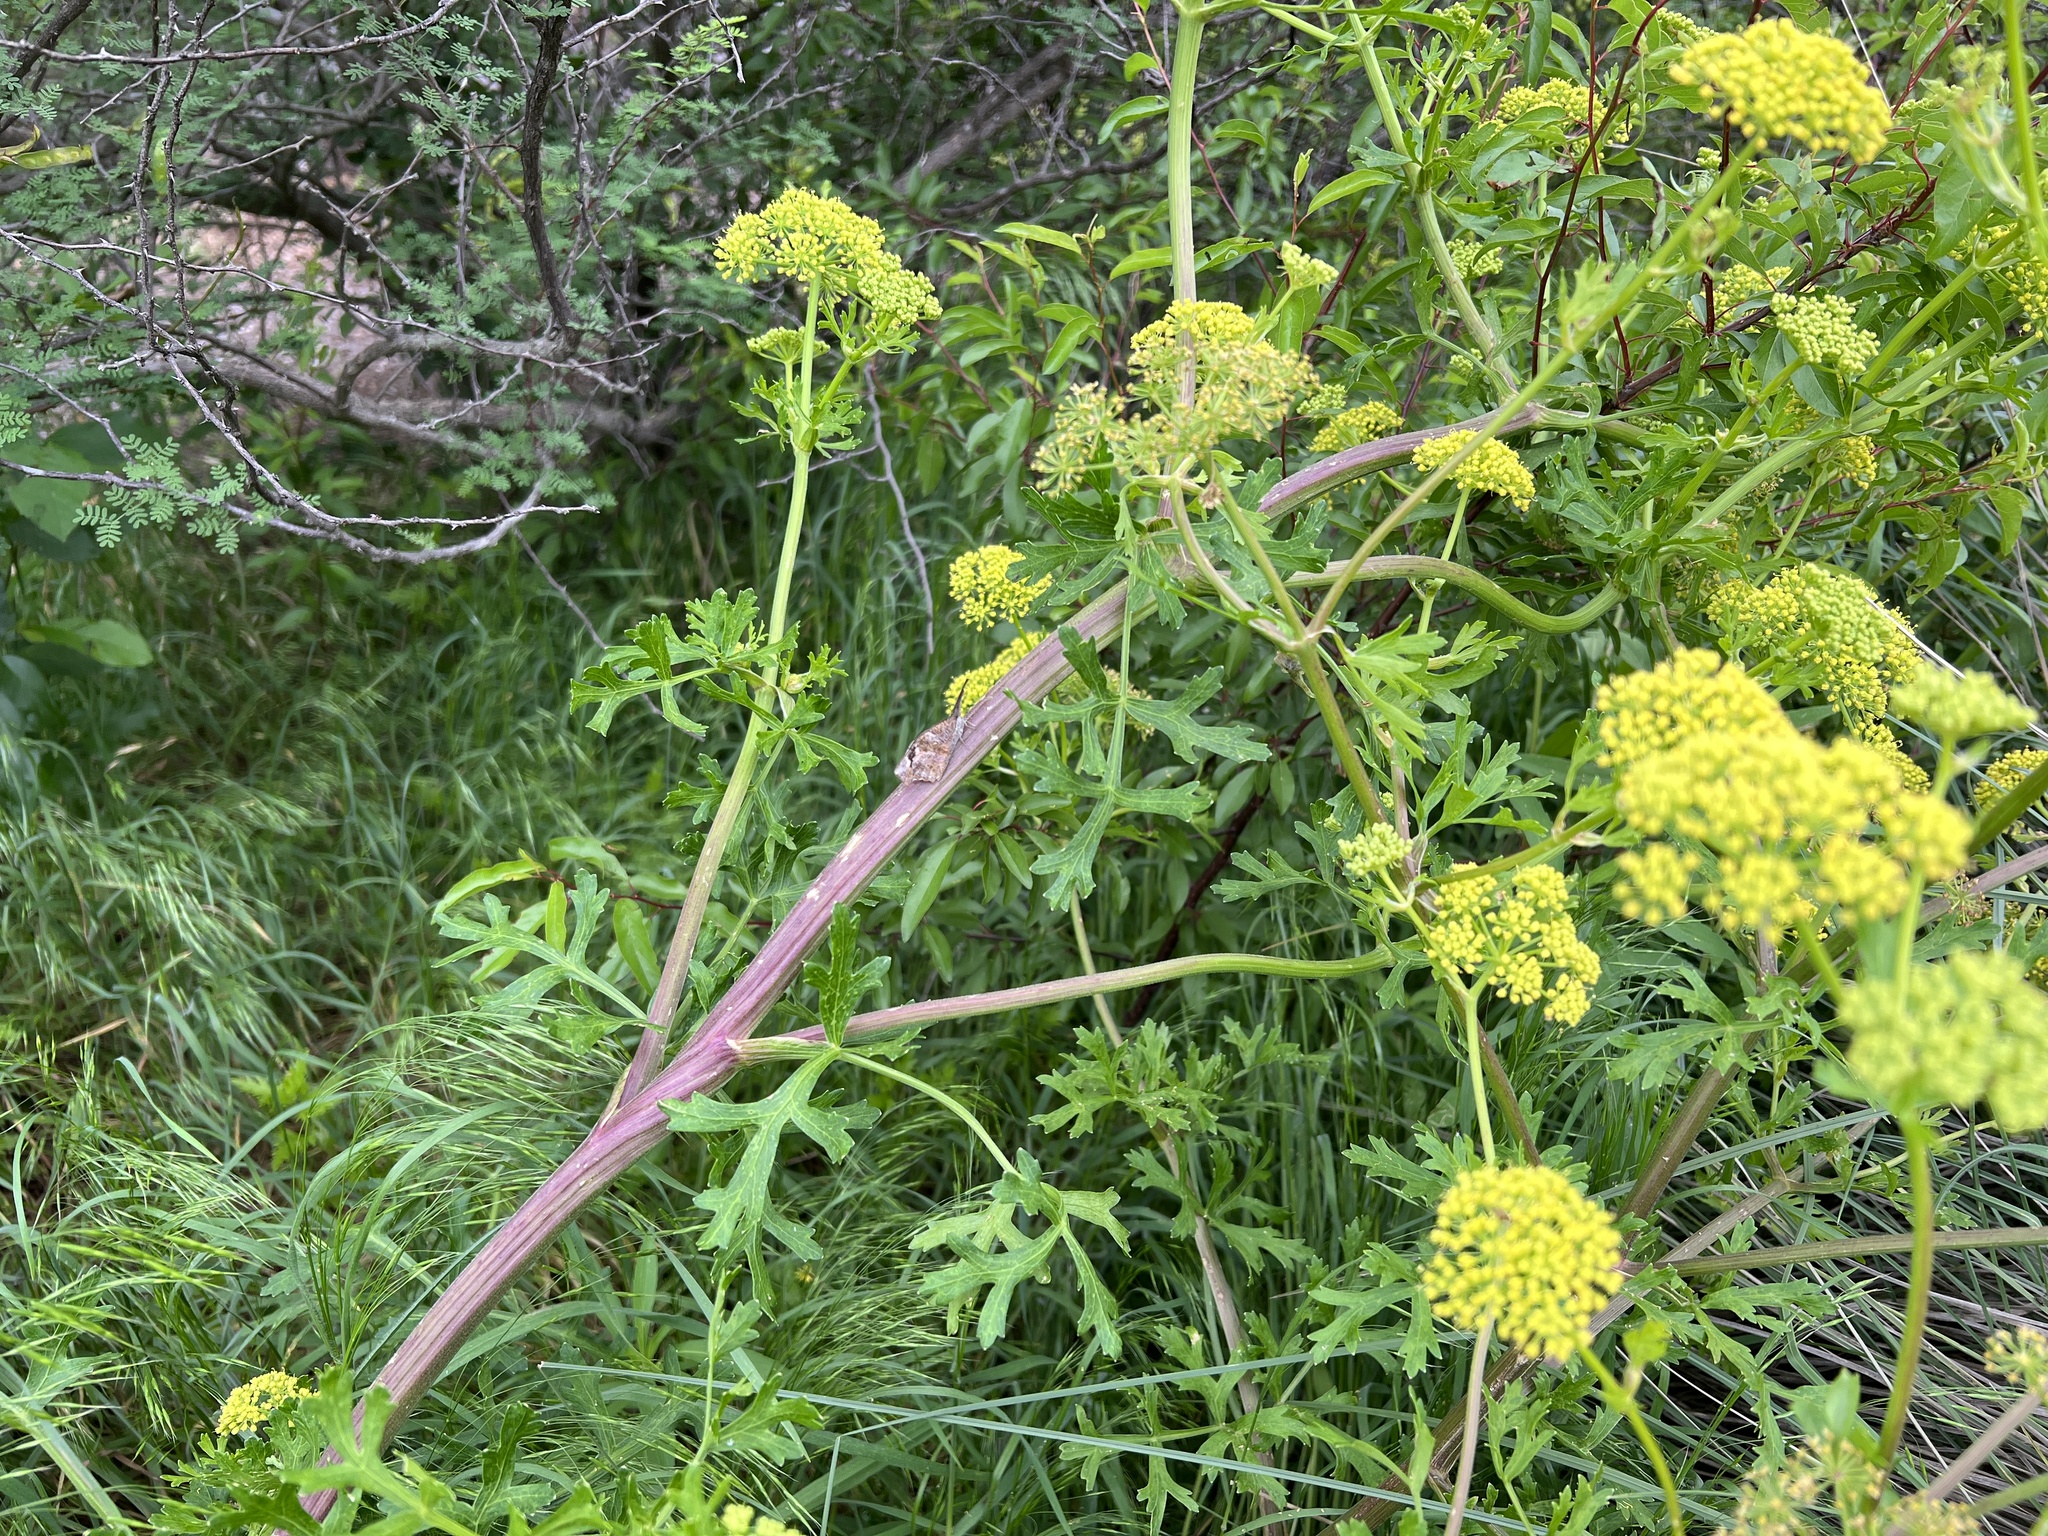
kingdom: Plantae
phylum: Tracheophyta
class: Magnoliopsida
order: Apiales
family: Apiaceae
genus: Polytaenia
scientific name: Polytaenia texana
